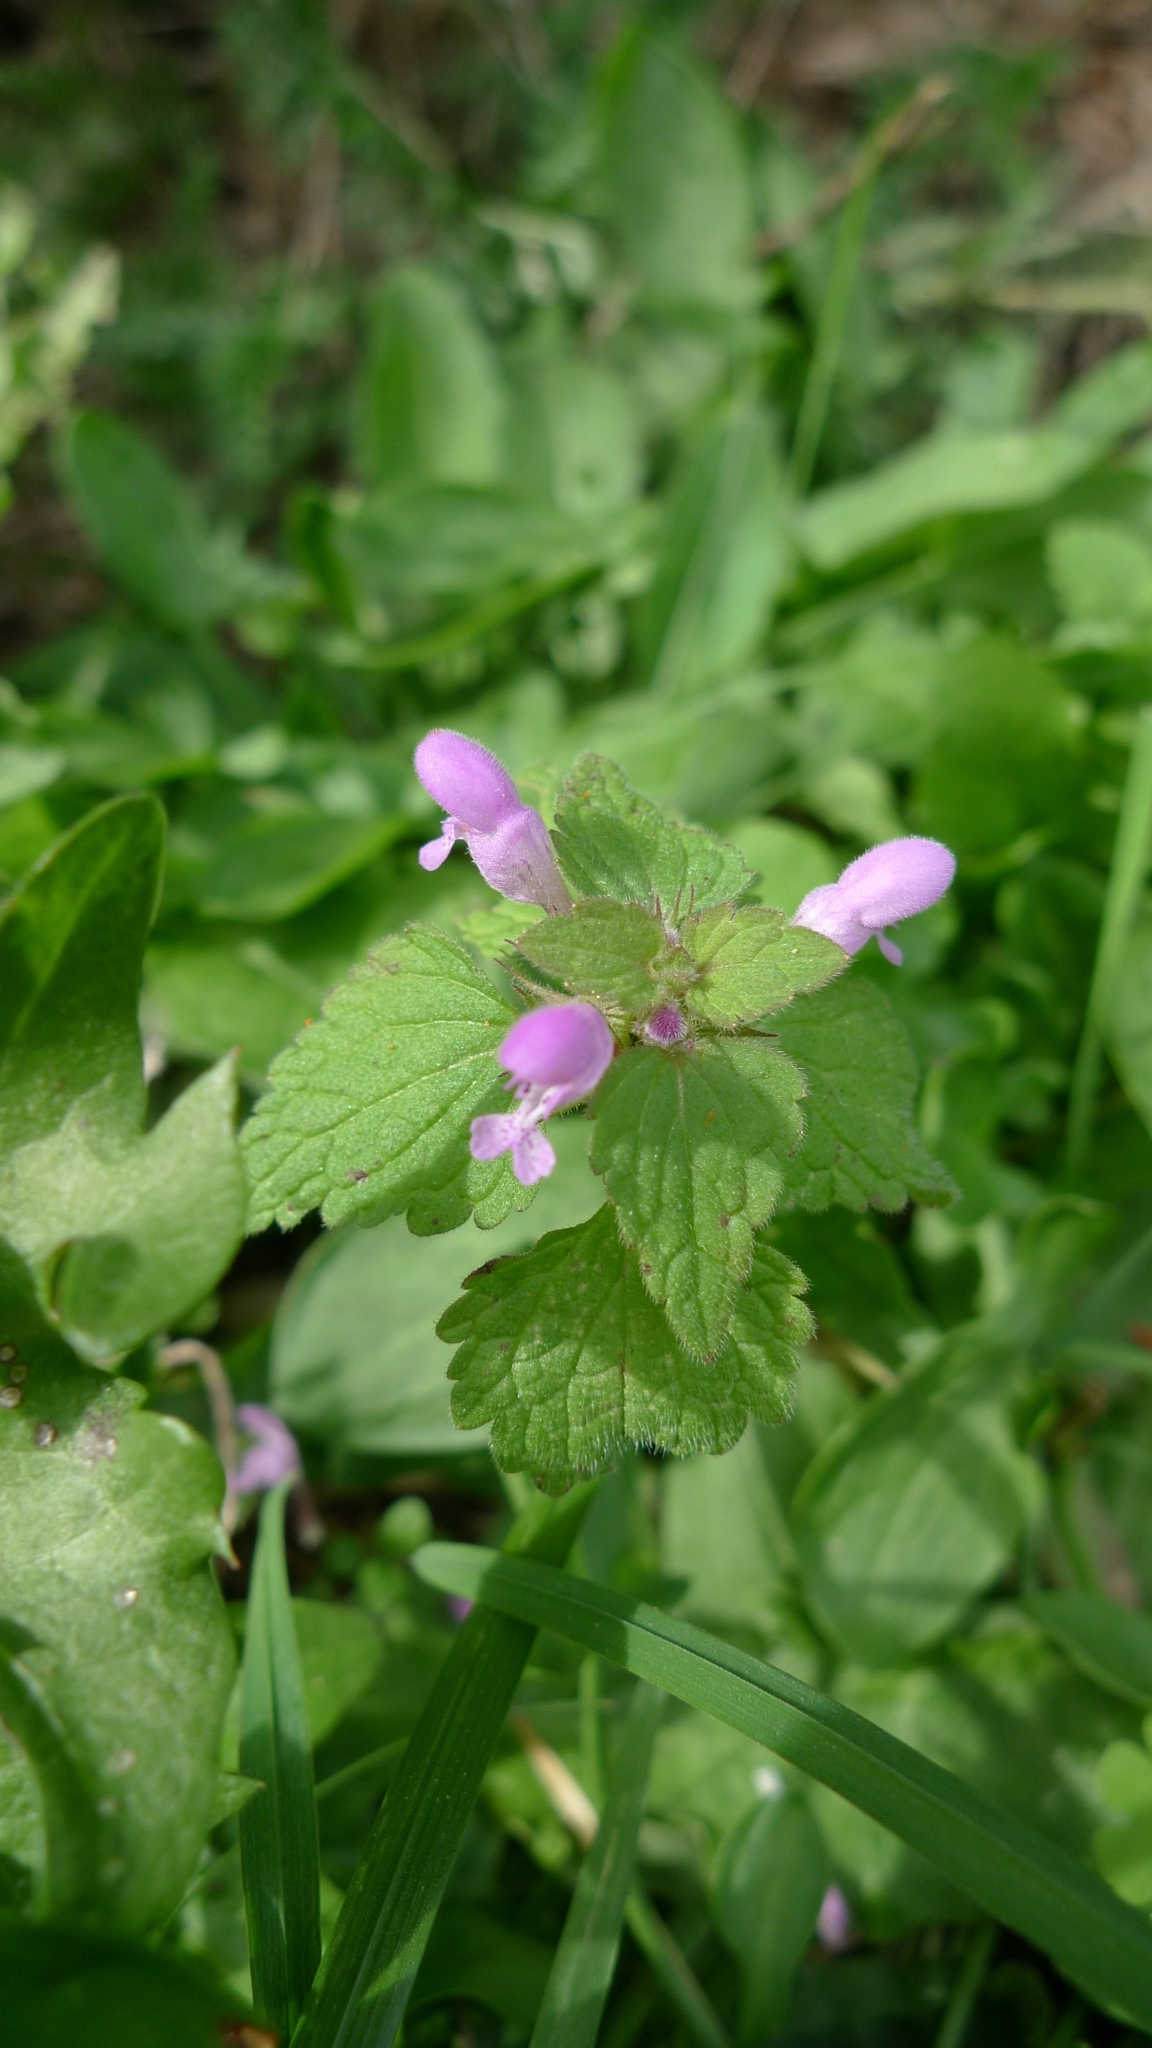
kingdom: Plantae
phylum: Tracheophyta
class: Magnoliopsida
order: Lamiales
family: Lamiaceae
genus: Lamium
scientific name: Lamium purpureum
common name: Red dead-nettle
